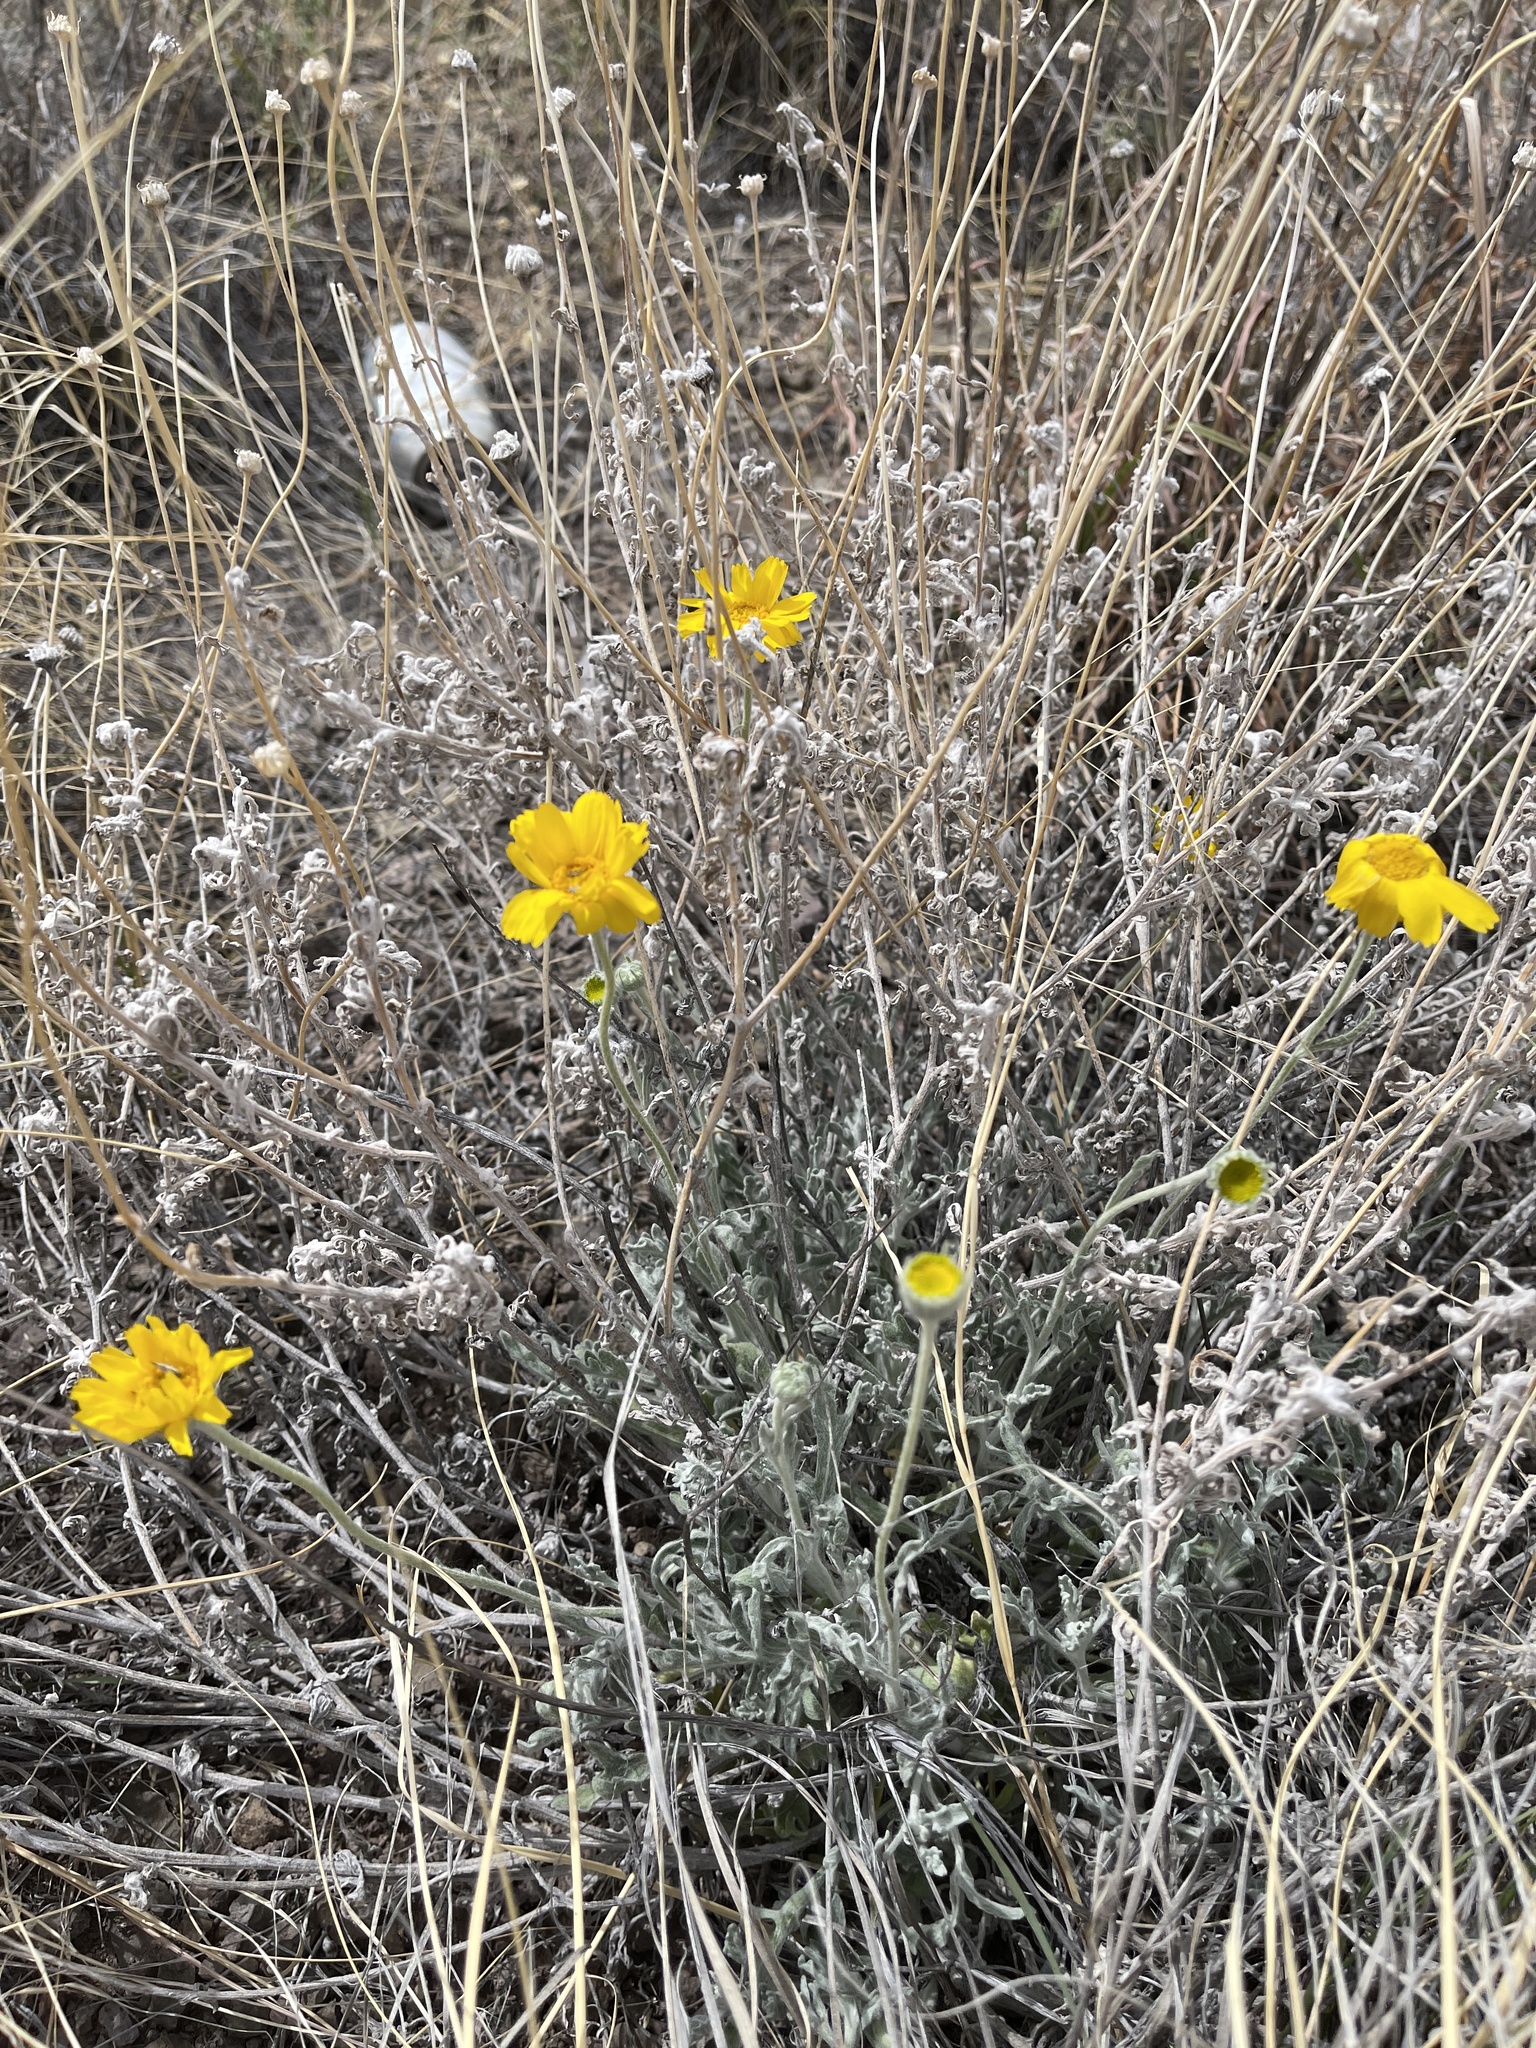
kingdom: Plantae
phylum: Tracheophyta
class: Magnoliopsida
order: Asterales
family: Asteraceae
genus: Baileya
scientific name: Baileya multiradiata
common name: Desert-marigold
